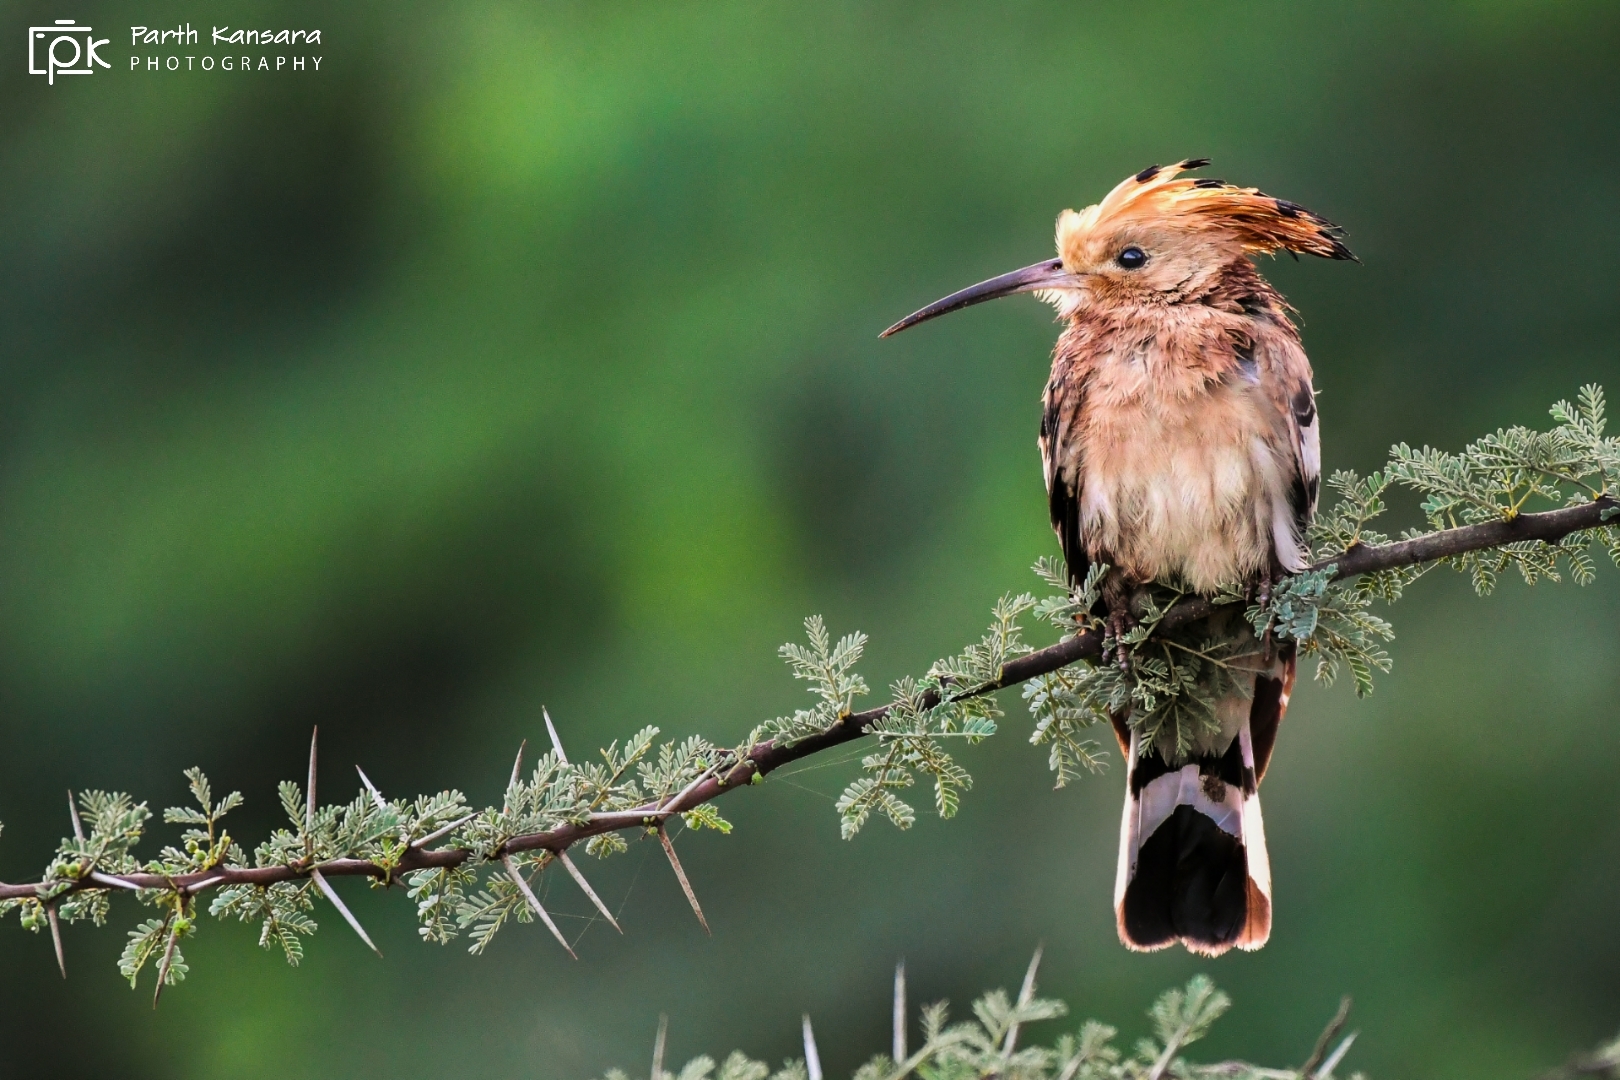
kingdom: Animalia
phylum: Chordata
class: Aves
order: Bucerotiformes
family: Upupidae
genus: Upupa
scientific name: Upupa epops
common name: Eurasian hoopoe
